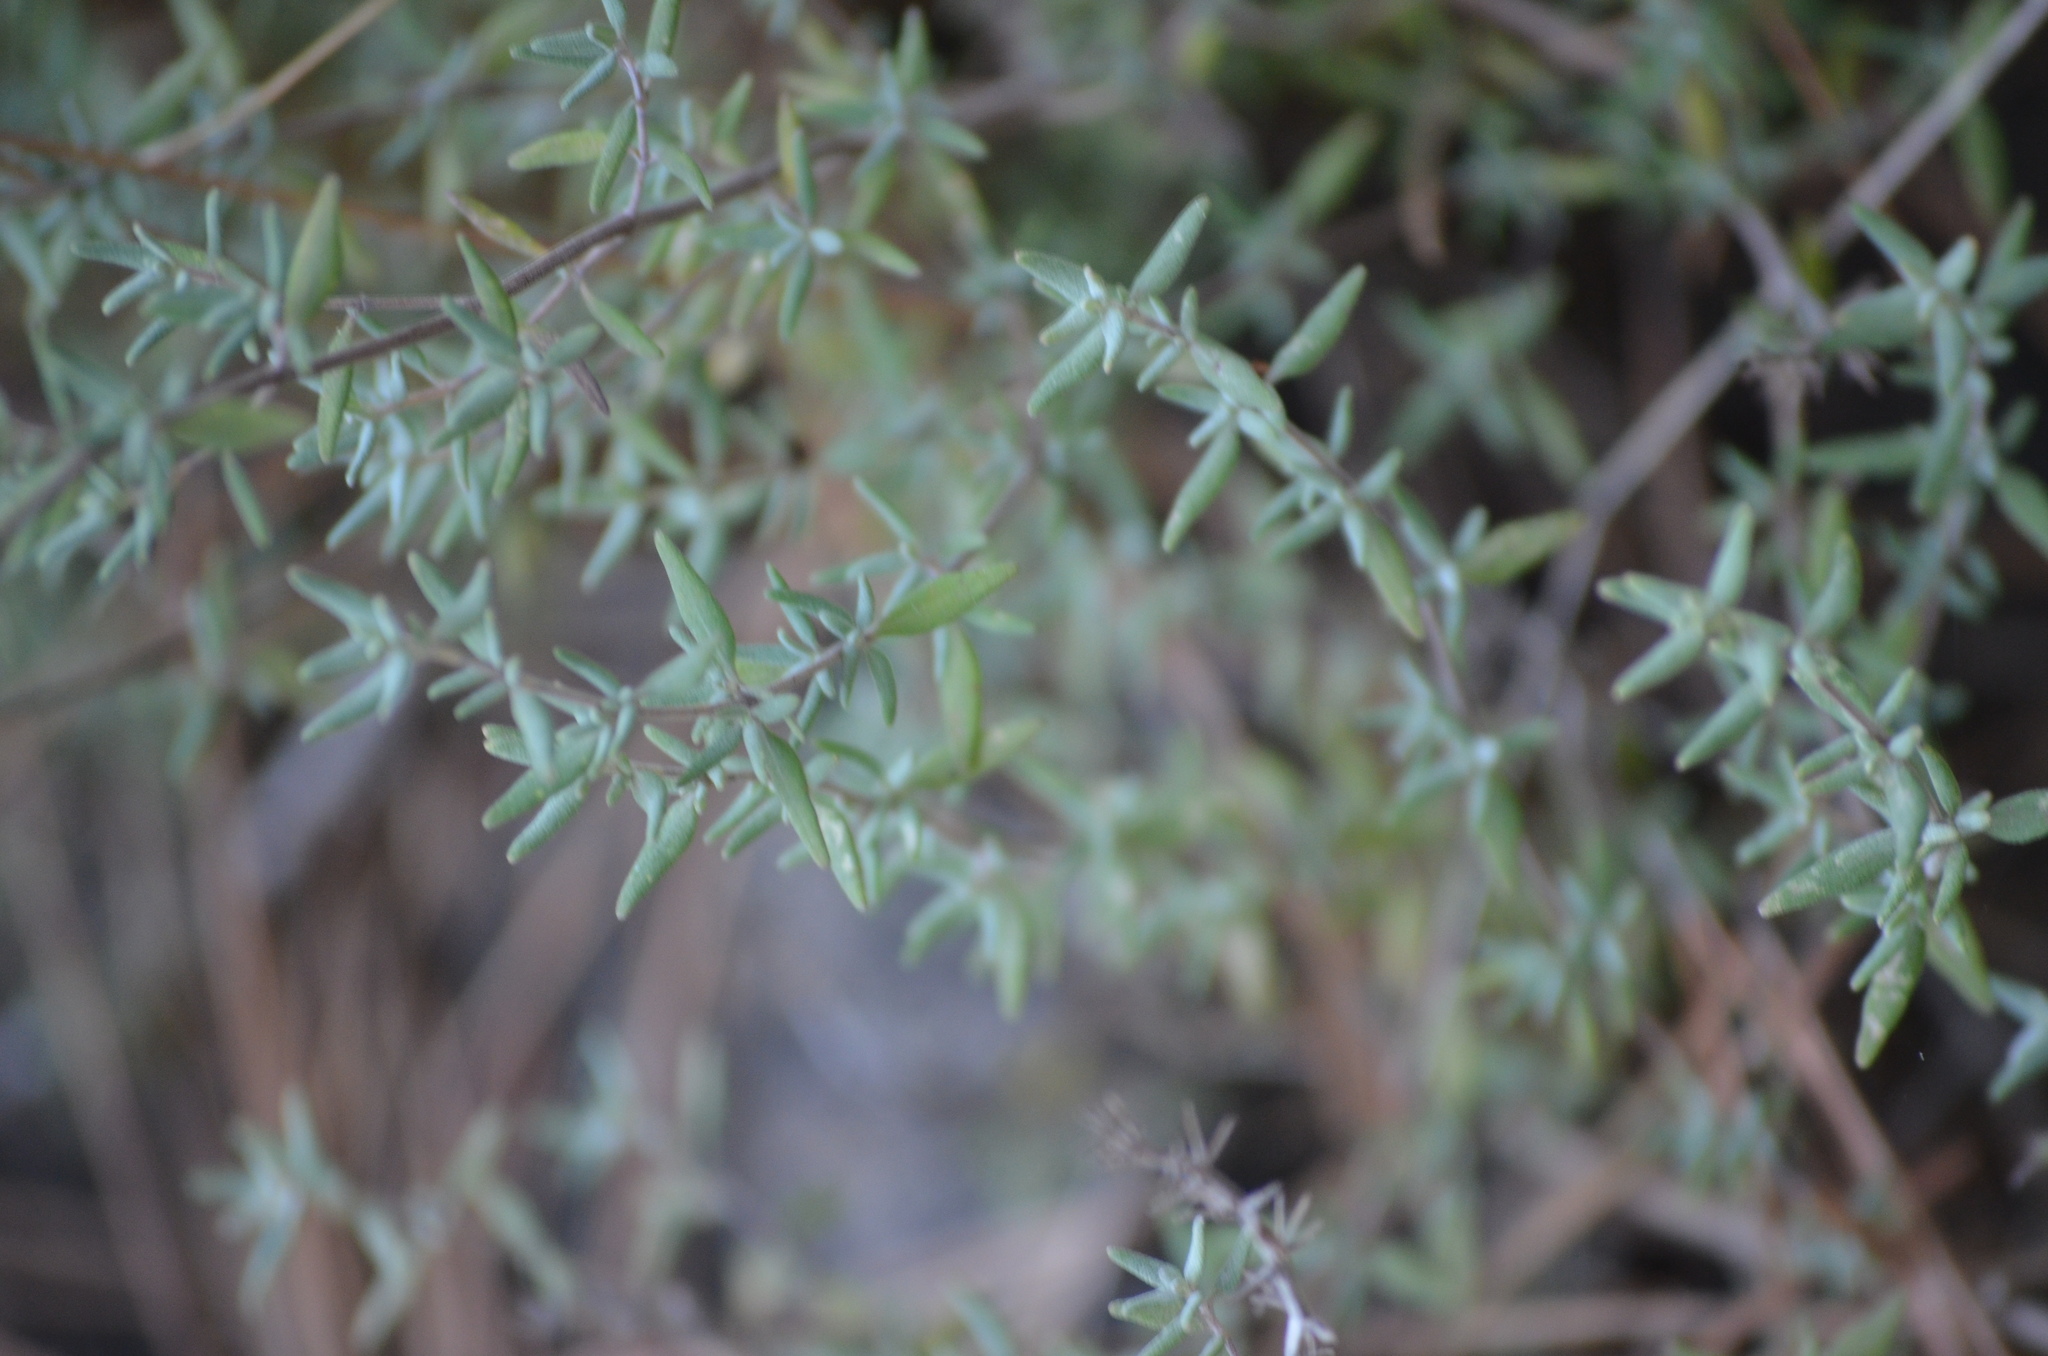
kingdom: Plantae
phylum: Tracheophyta
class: Magnoliopsida
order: Lamiales
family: Lamiaceae
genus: Thymus
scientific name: Thymus vulgaris
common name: Garden thyme
